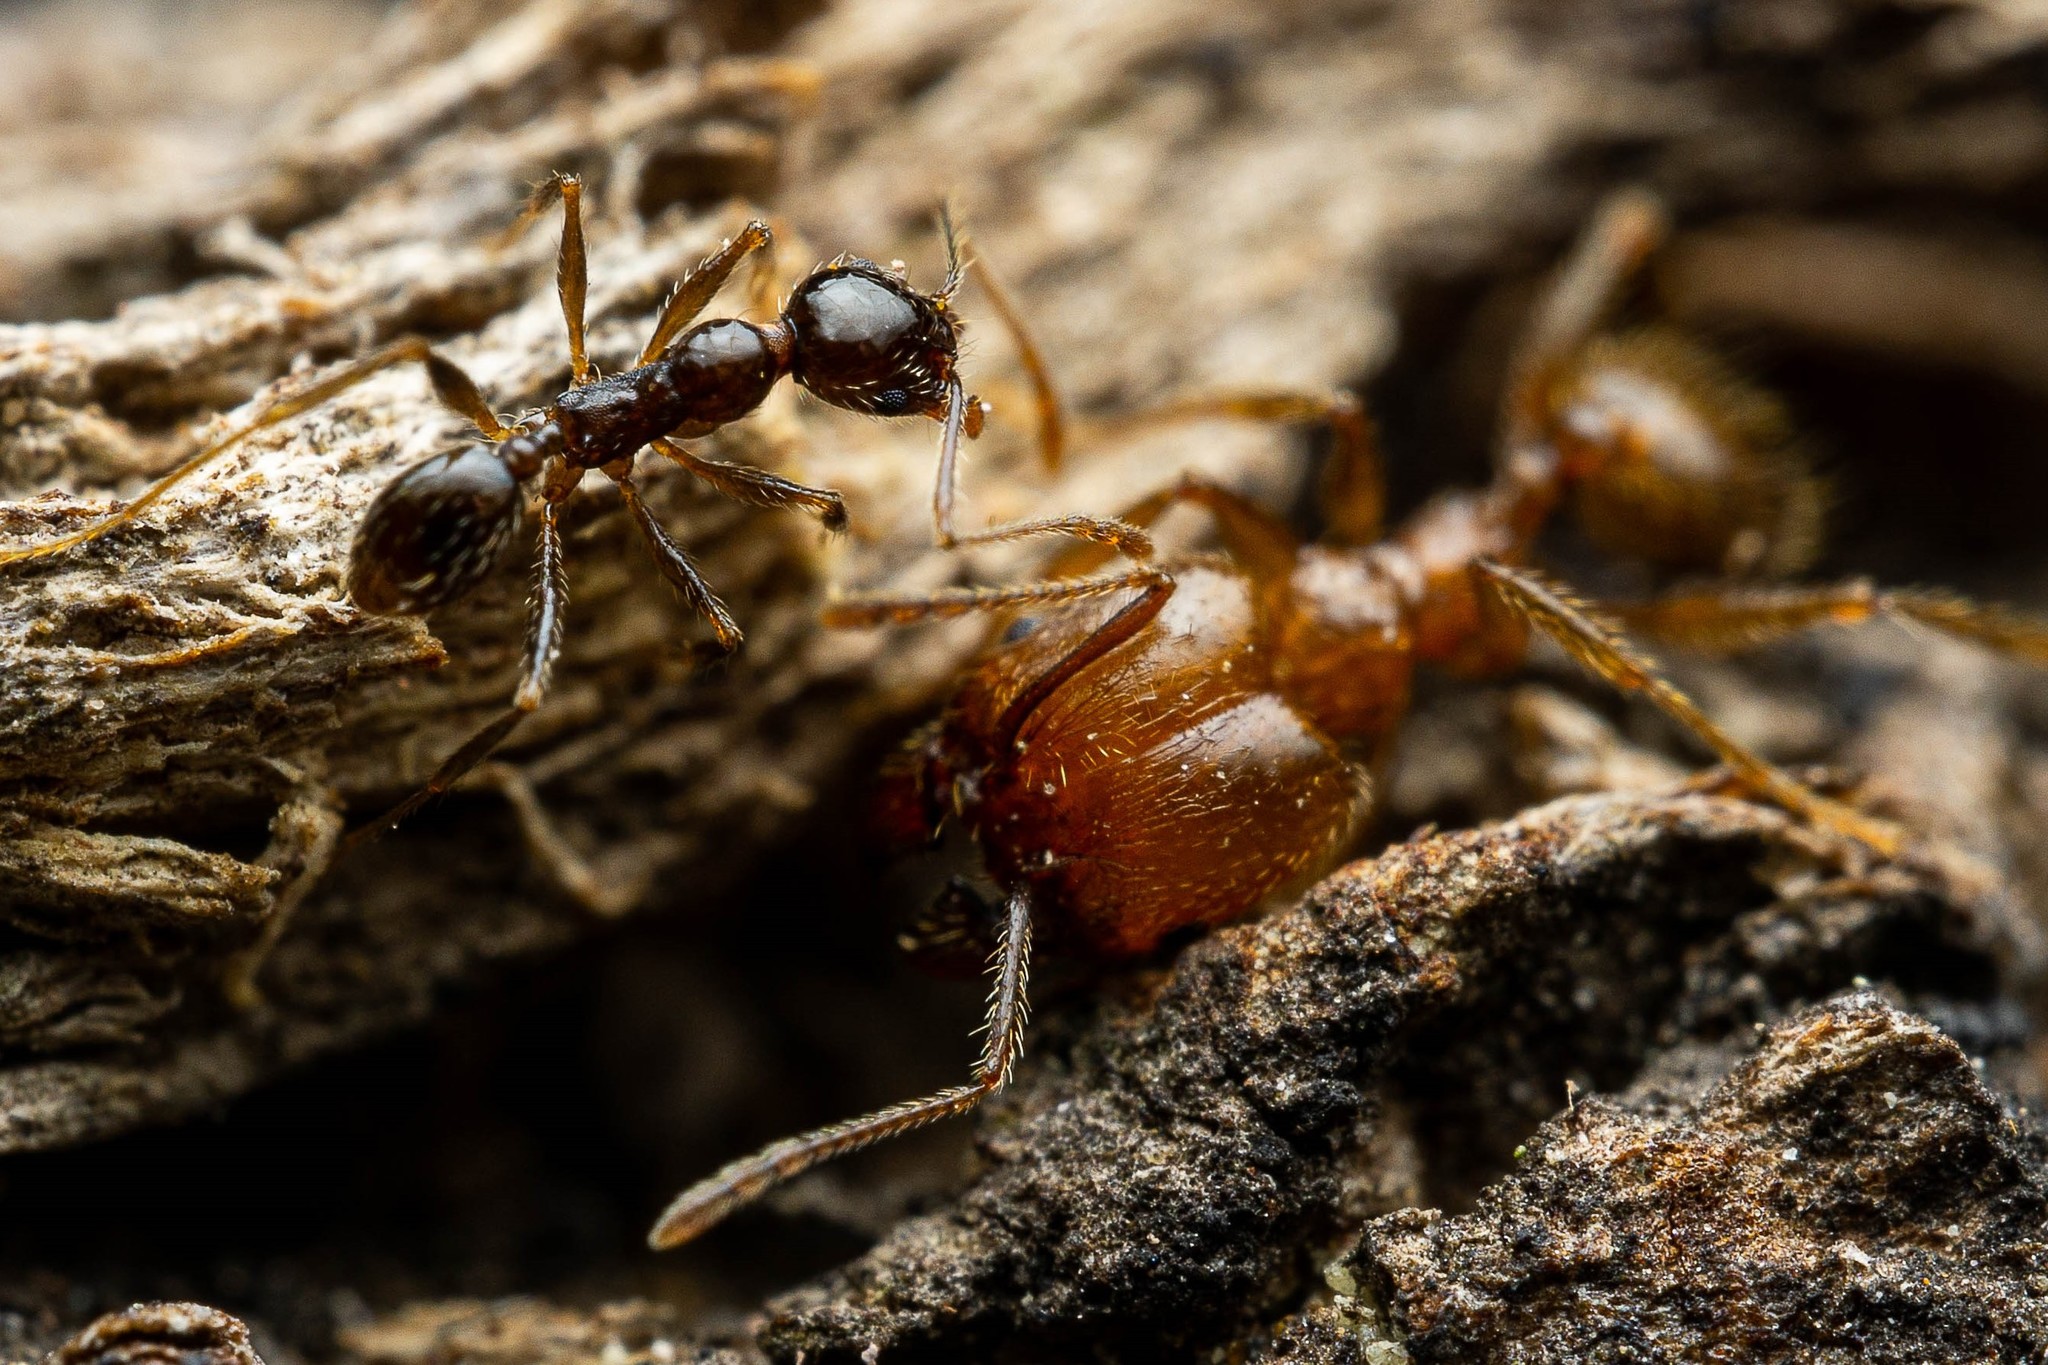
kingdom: Animalia
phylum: Arthropoda
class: Insecta
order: Hymenoptera
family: Formicidae
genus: Pheidole
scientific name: Pheidole
